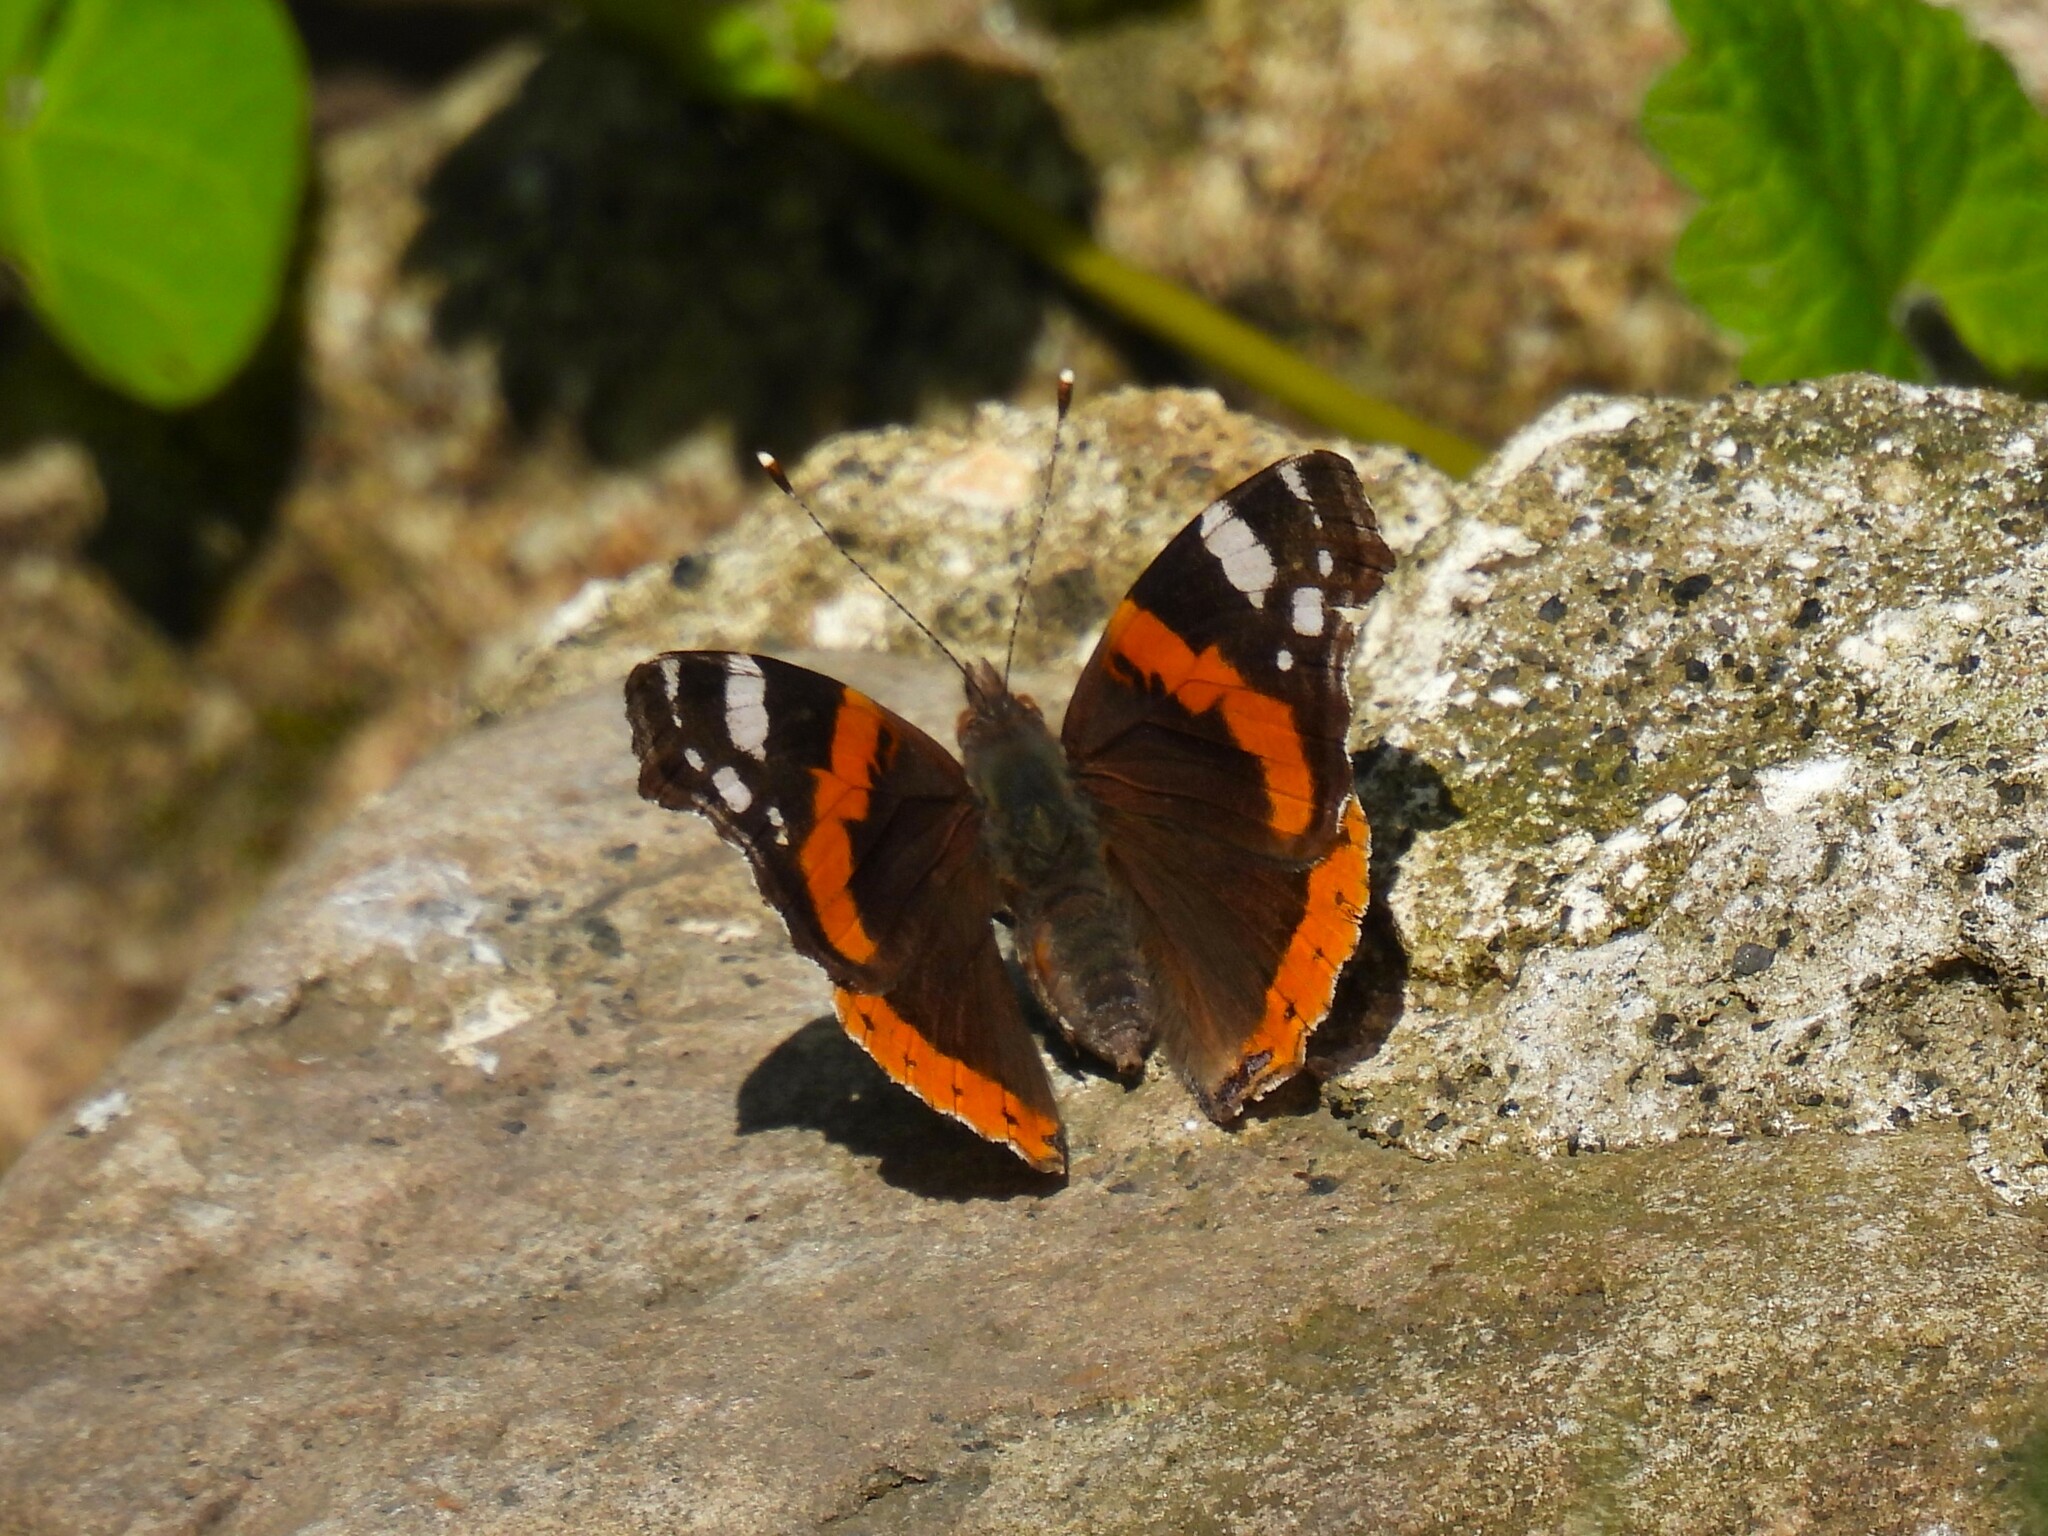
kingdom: Animalia
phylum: Arthropoda
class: Insecta
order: Lepidoptera
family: Nymphalidae
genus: Vanessa
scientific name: Vanessa atalanta
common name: Red admiral
